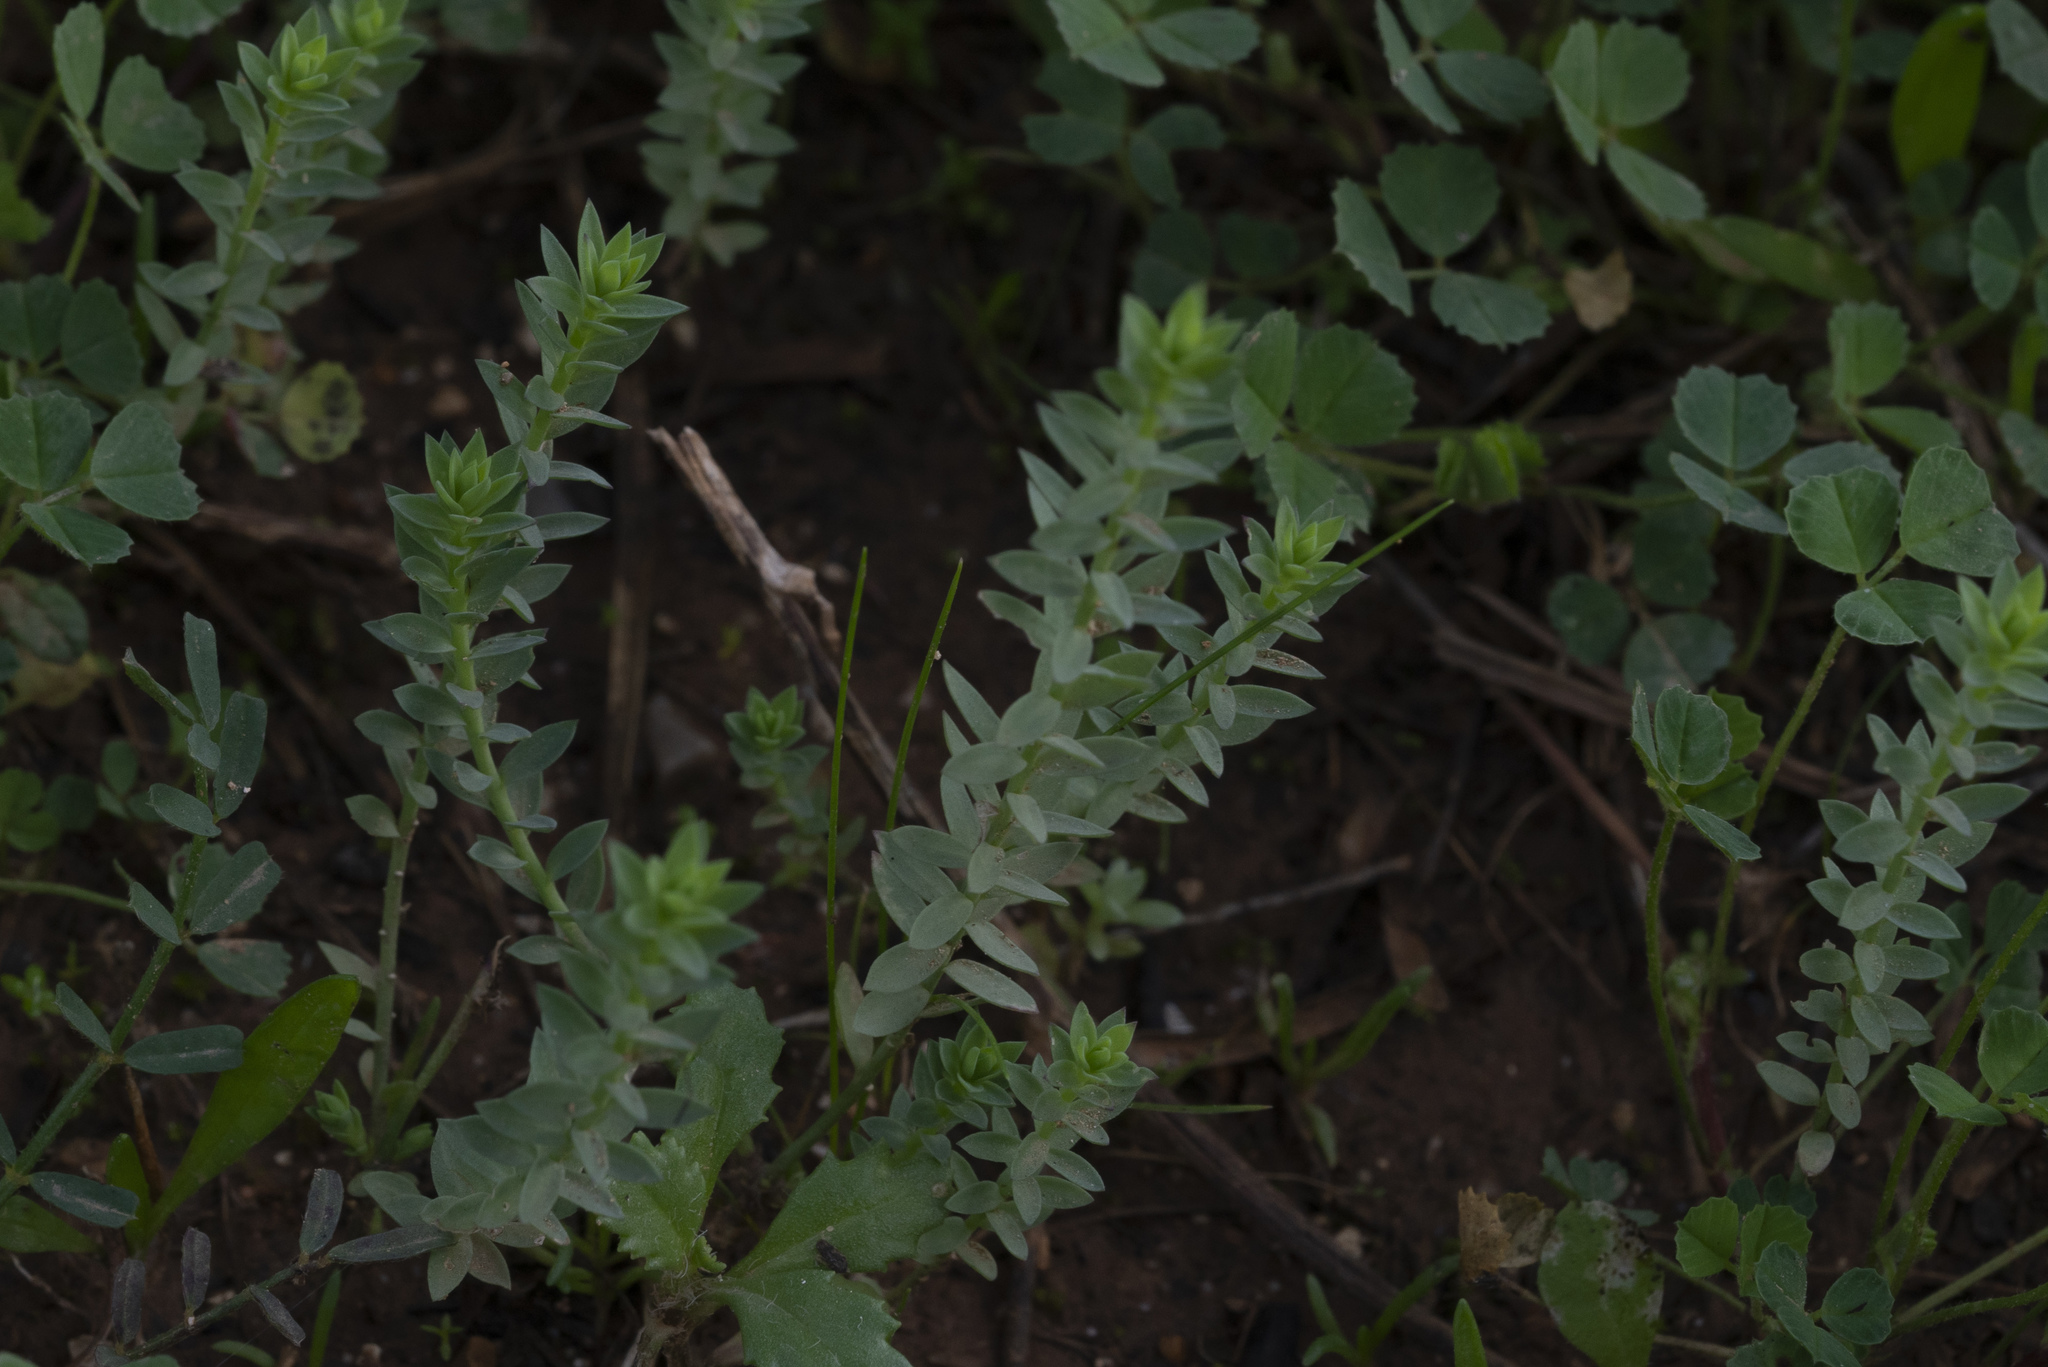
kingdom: Plantae
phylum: Tracheophyta
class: Magnoliopsida
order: Malpighiales
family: Linaceae
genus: Linum
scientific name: Linum bienne
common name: Pale flax
